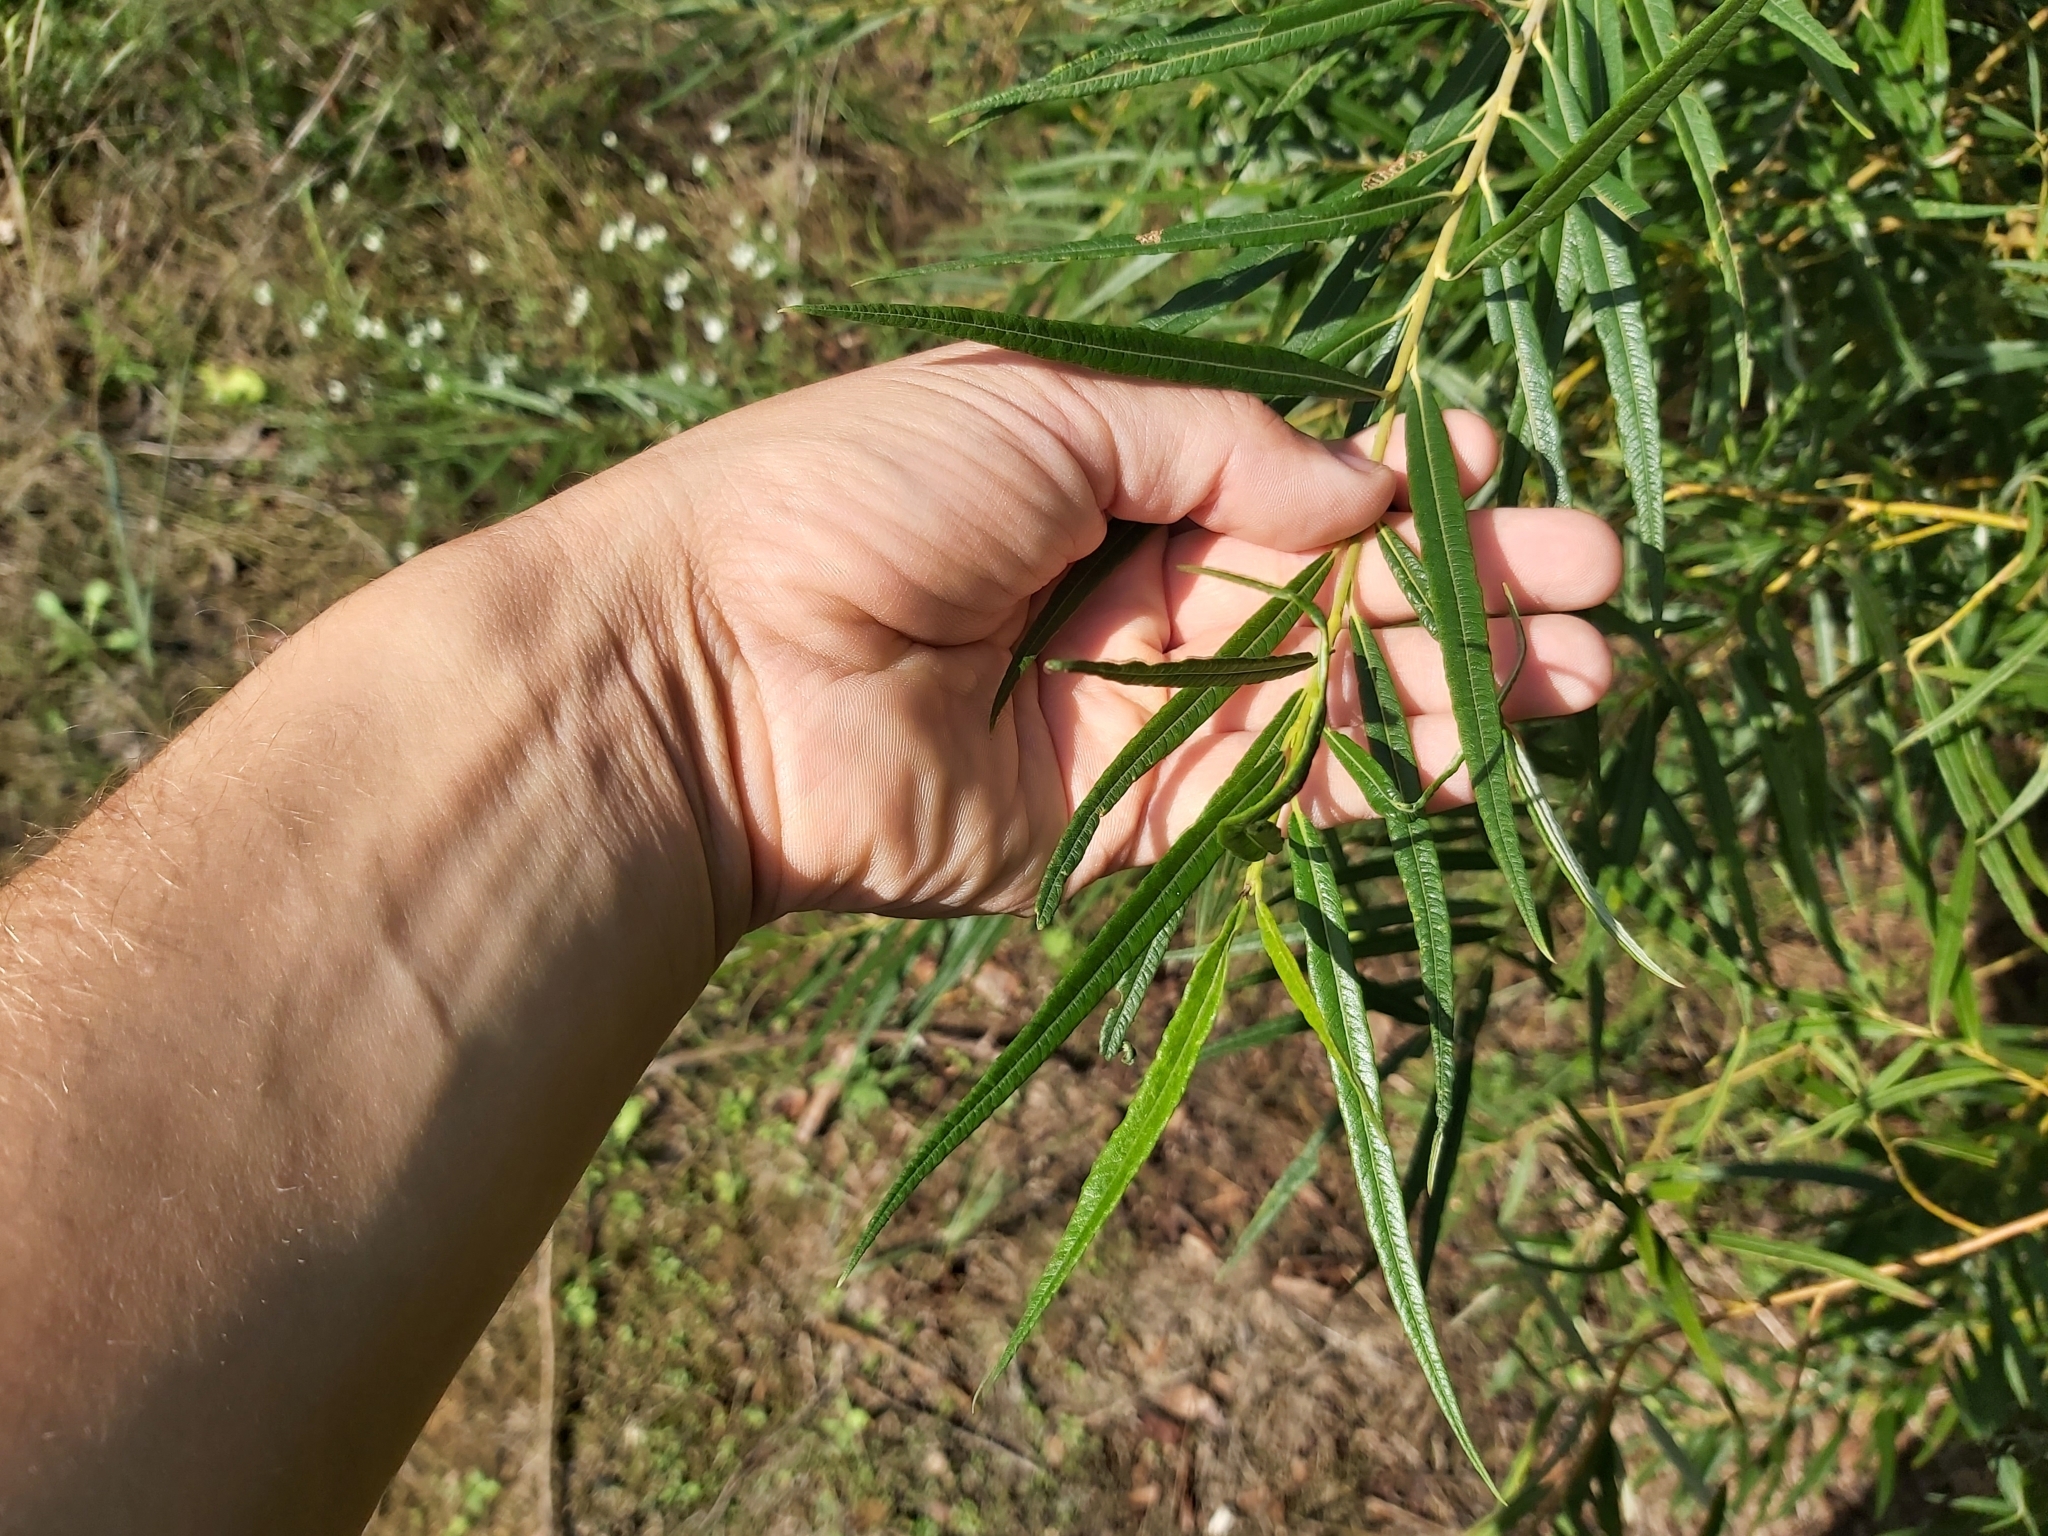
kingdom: Plantae
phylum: Tracheophyta
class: Magnoliopsida
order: Malpighiales
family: Salicaceae
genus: Salix
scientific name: Salix viminalis
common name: Osier
